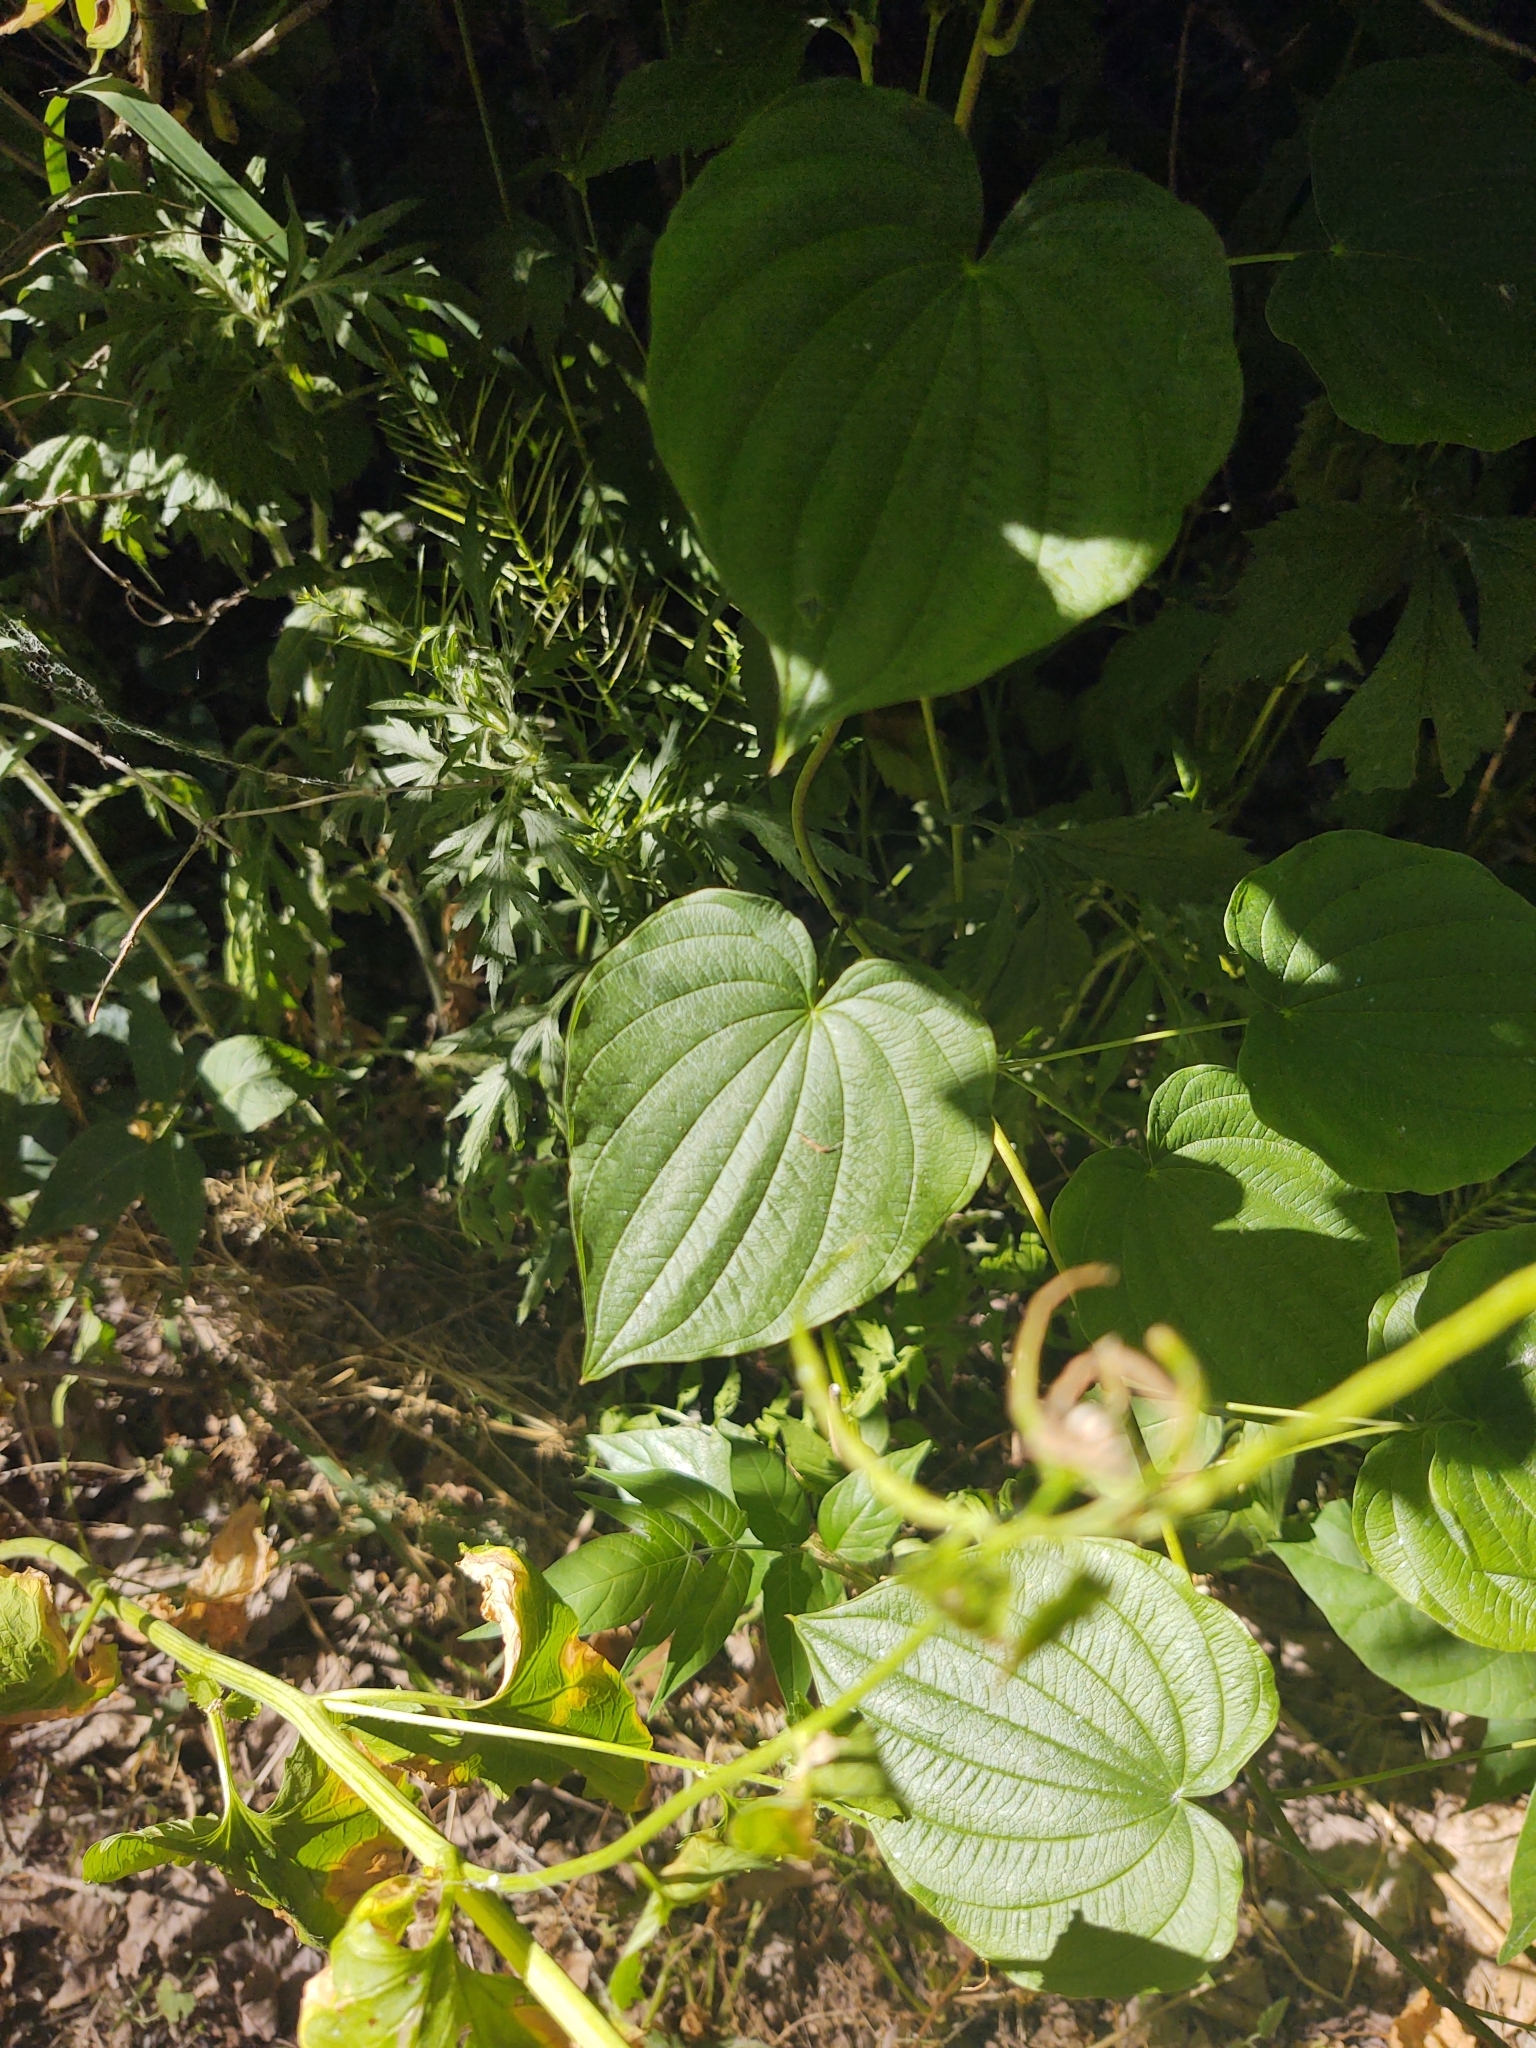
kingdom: Plantae
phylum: Tracheophyta
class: Liliopsida
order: Dioscoreales
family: Dioscoreaceae
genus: Dioscorea
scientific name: Dioscorea villosa
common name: Wild yam
